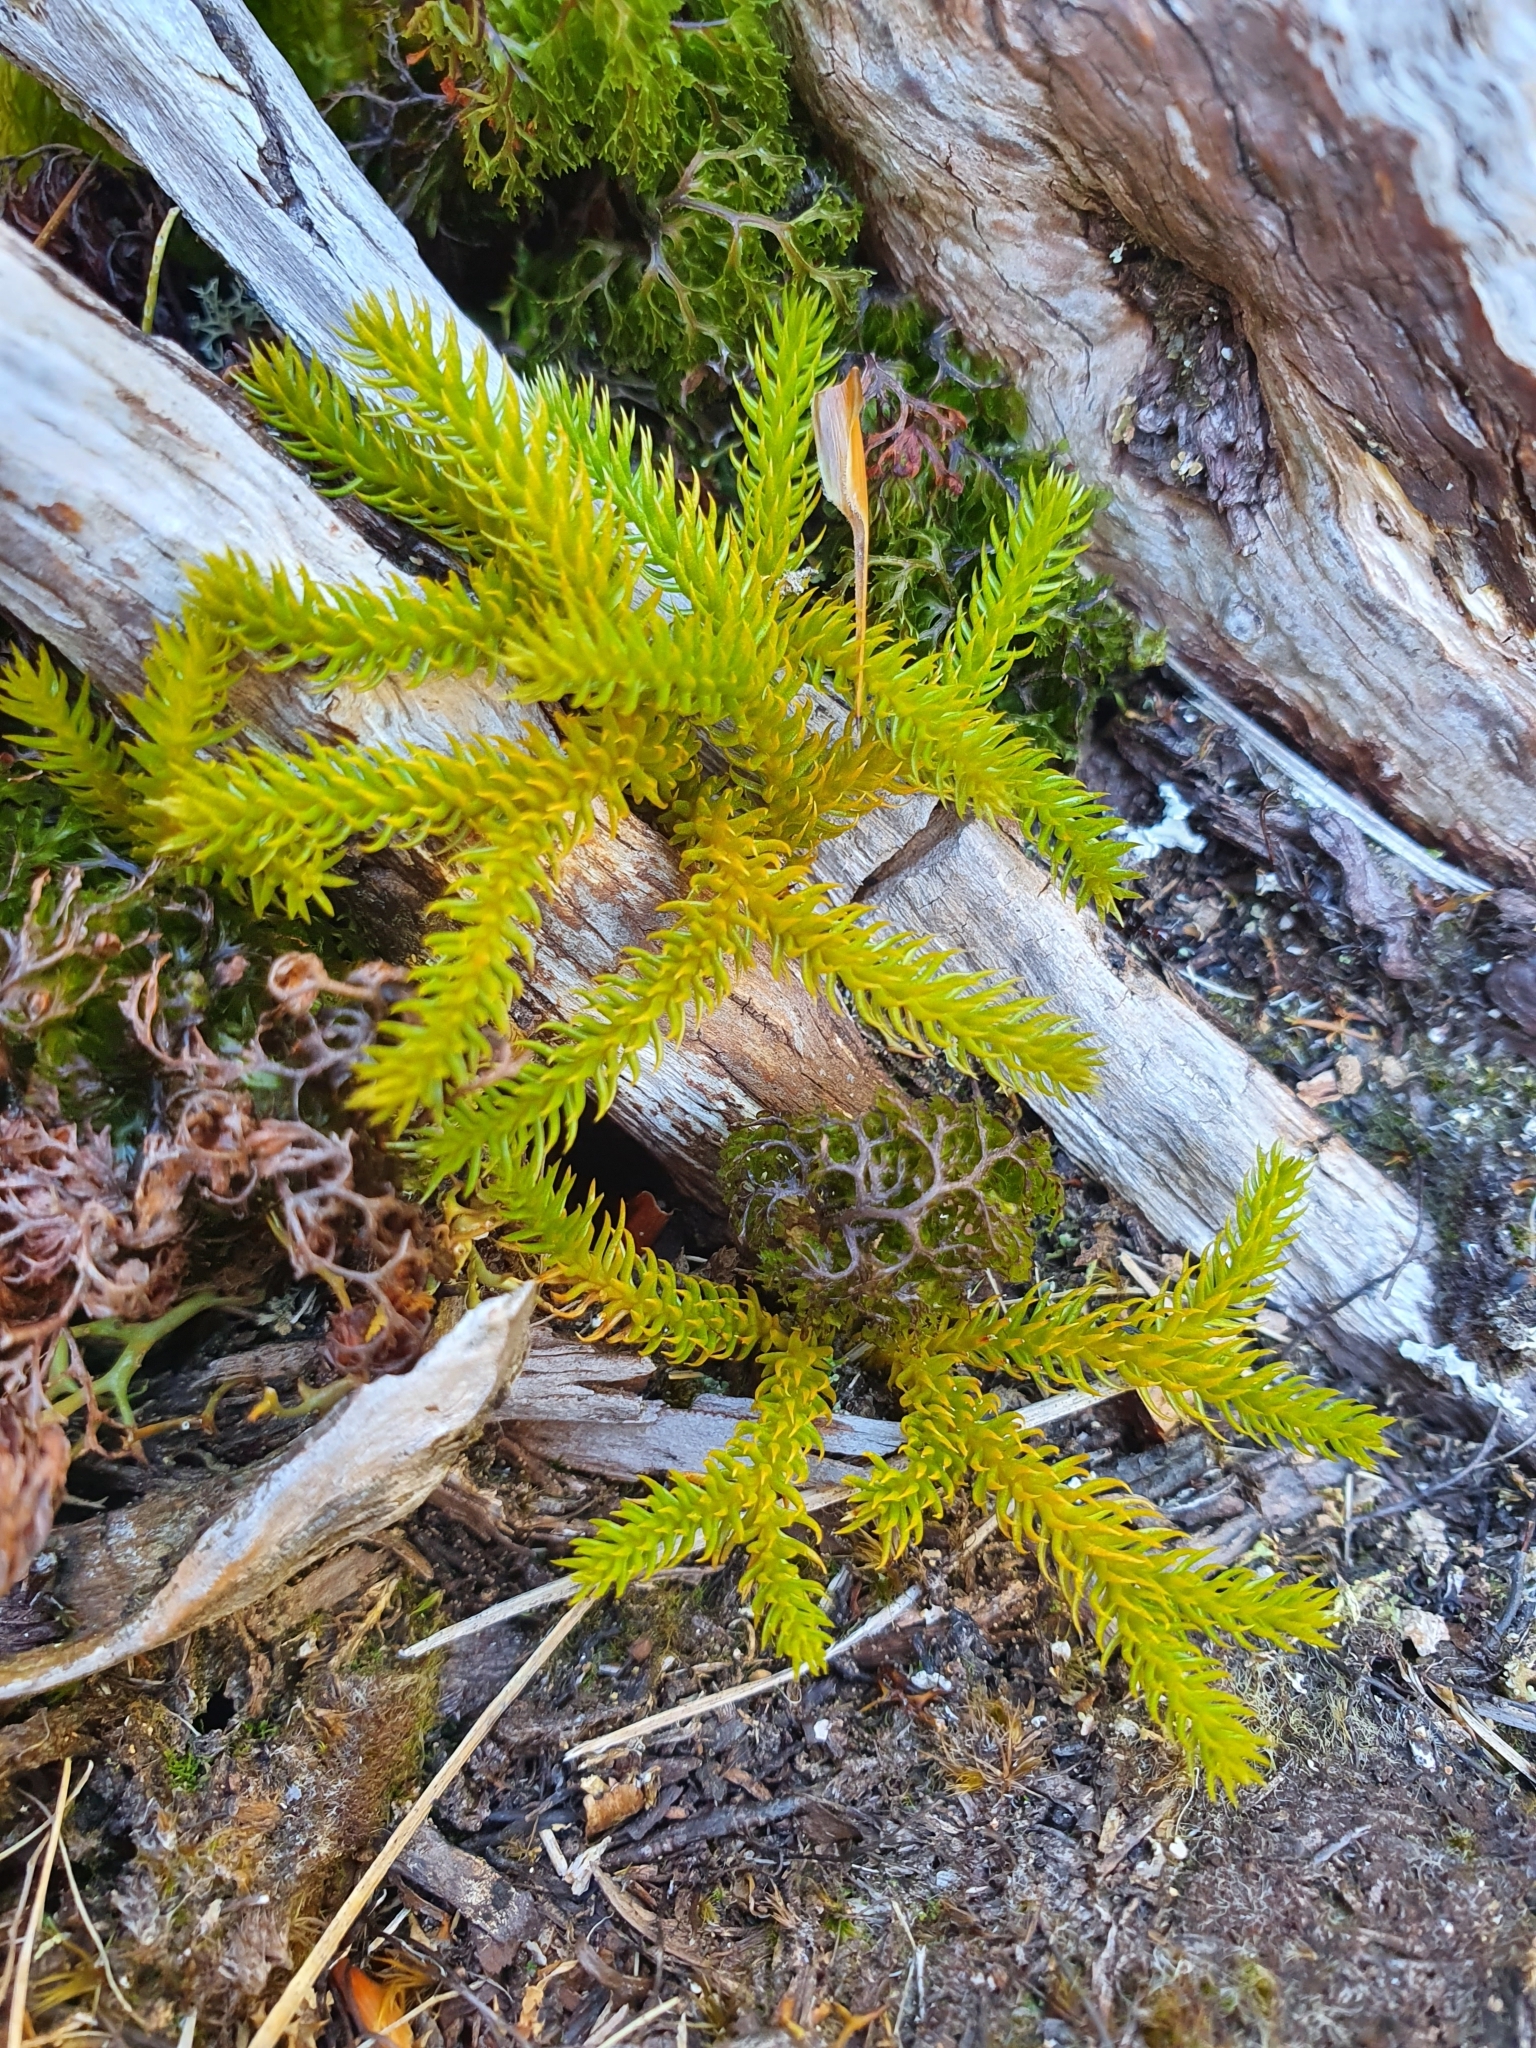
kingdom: Plantae
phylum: Tracheophyta
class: Lycopodiopsida
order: Lycopodiales
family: Lycopodiaceae
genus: Austrolycopodium
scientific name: Austrolycopodium fastigiatum
